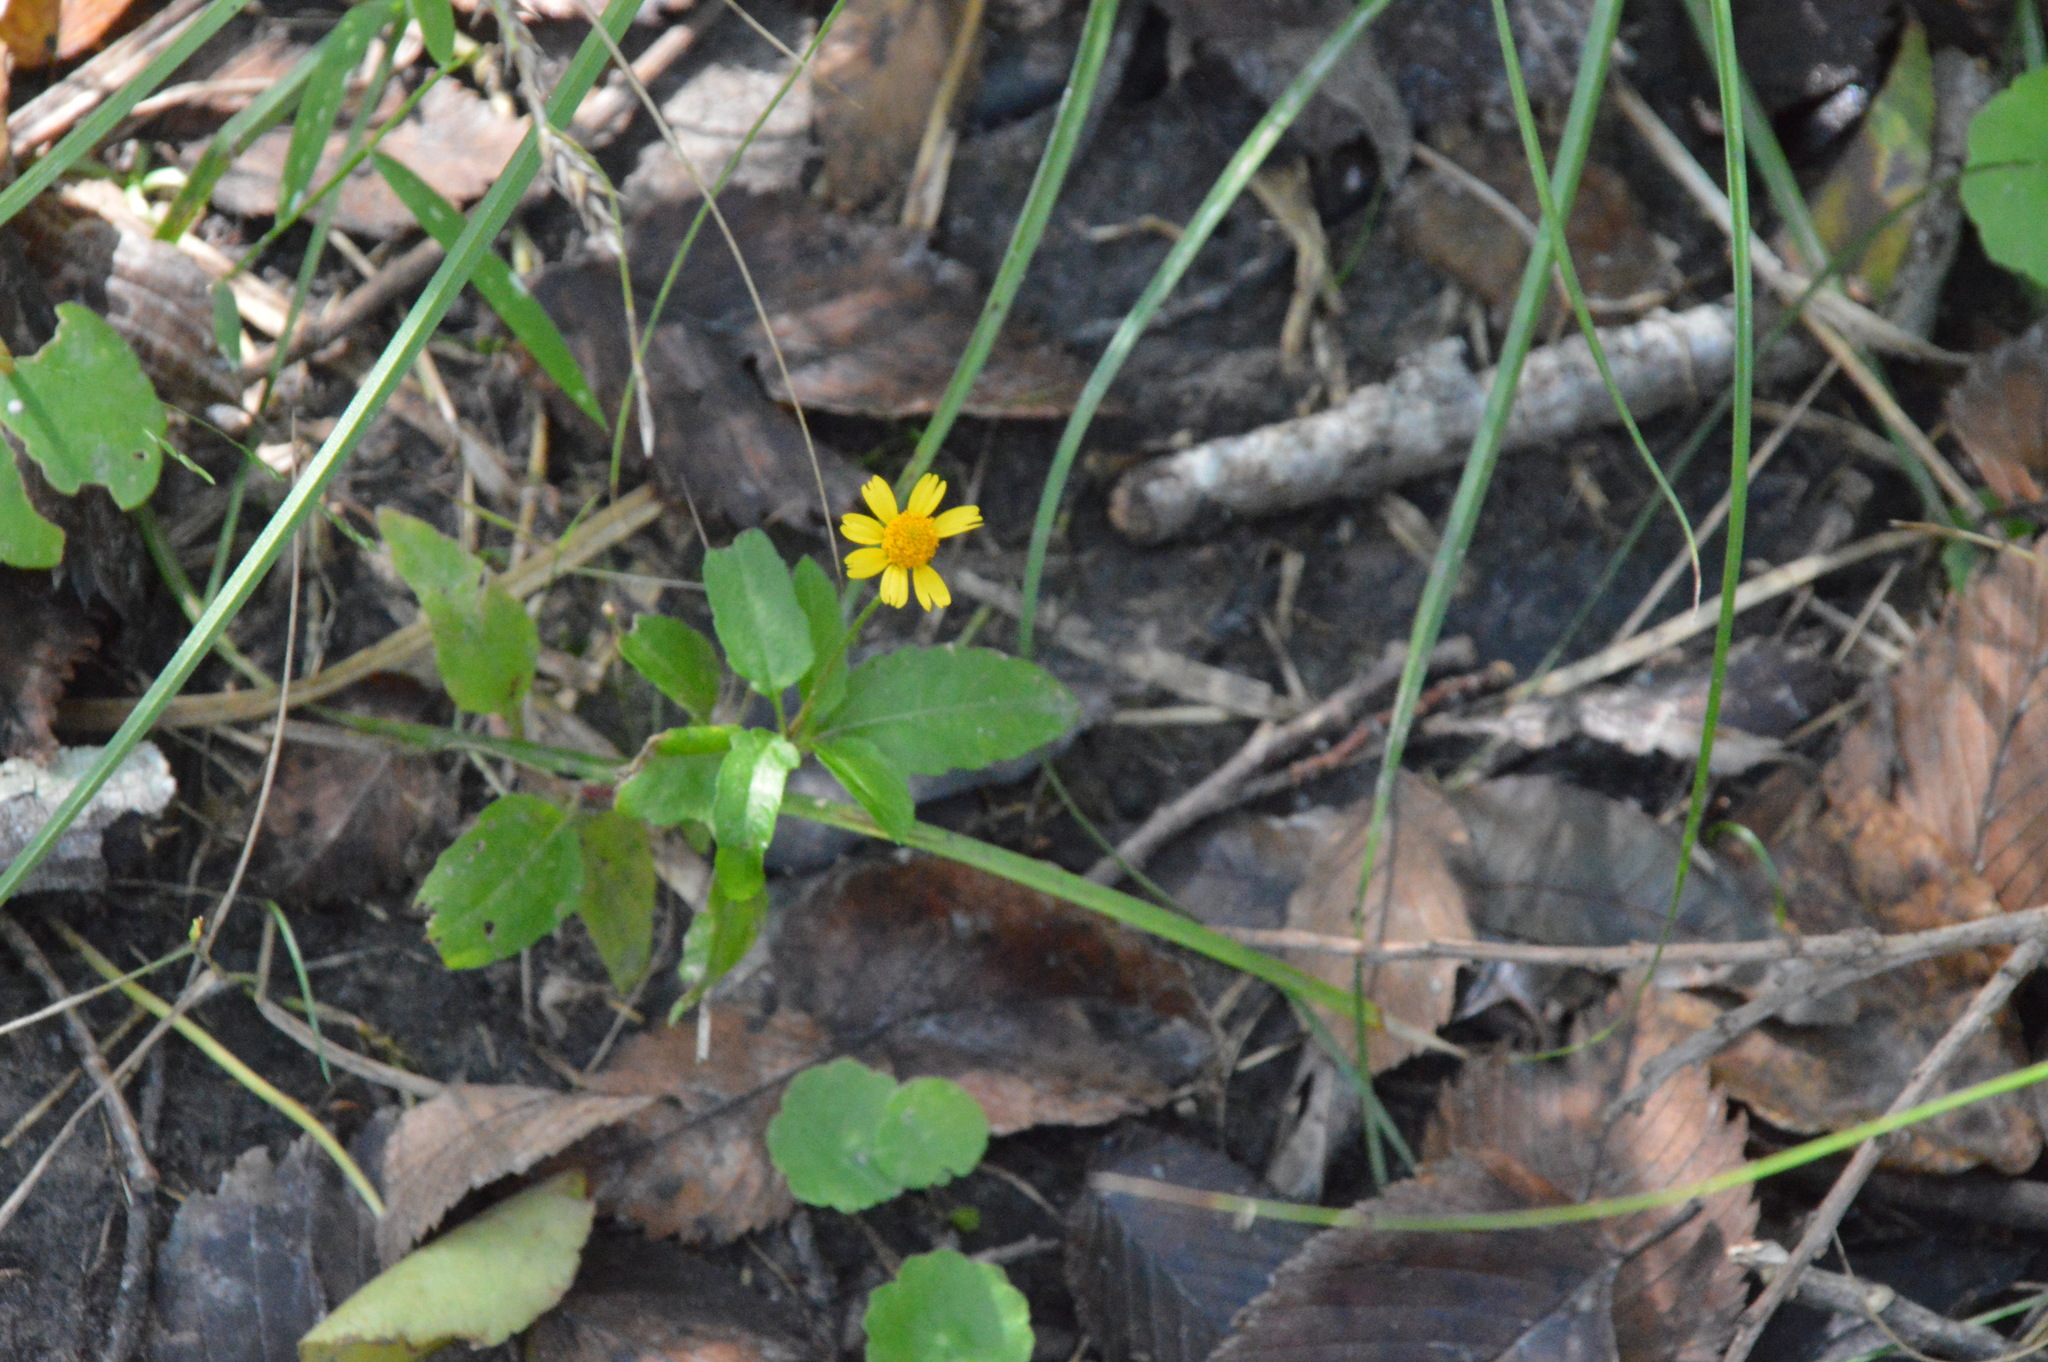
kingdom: Plantae
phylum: Tracheophyta
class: Magnoliopsida
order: Asterales
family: Asteraceae
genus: Acmella
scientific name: Acmella repens
